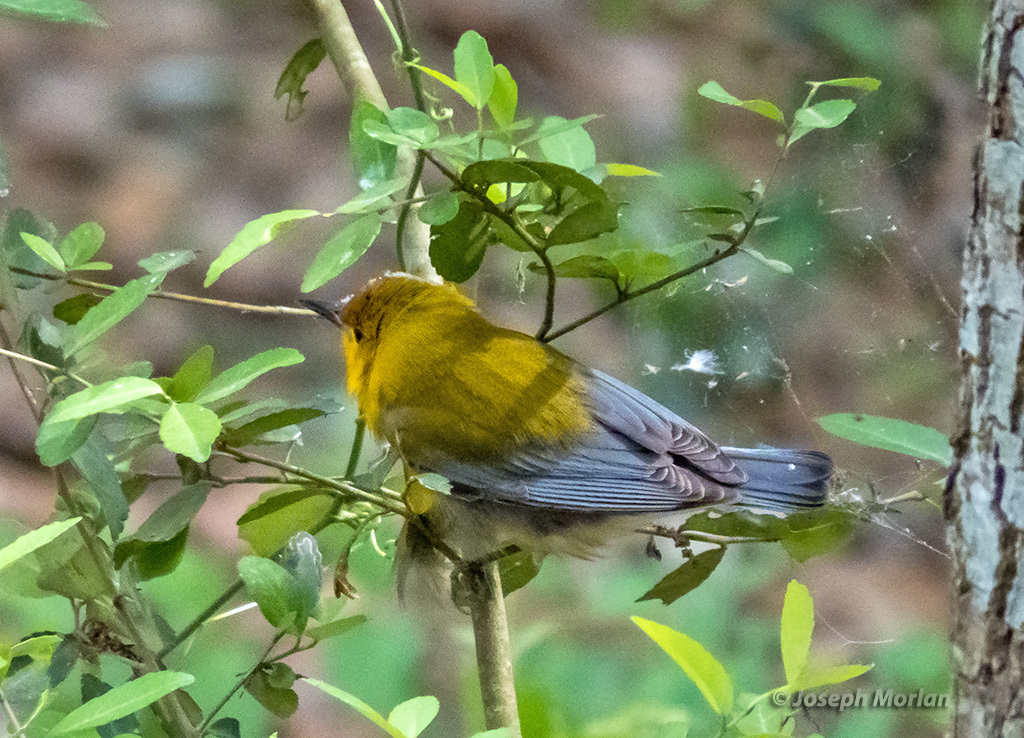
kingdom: Animalia
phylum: Chordata
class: Aves
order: Passeriformes
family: Parulidae
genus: Protonotaria
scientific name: Protonotaria citrea
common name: Prothonotary warbler
